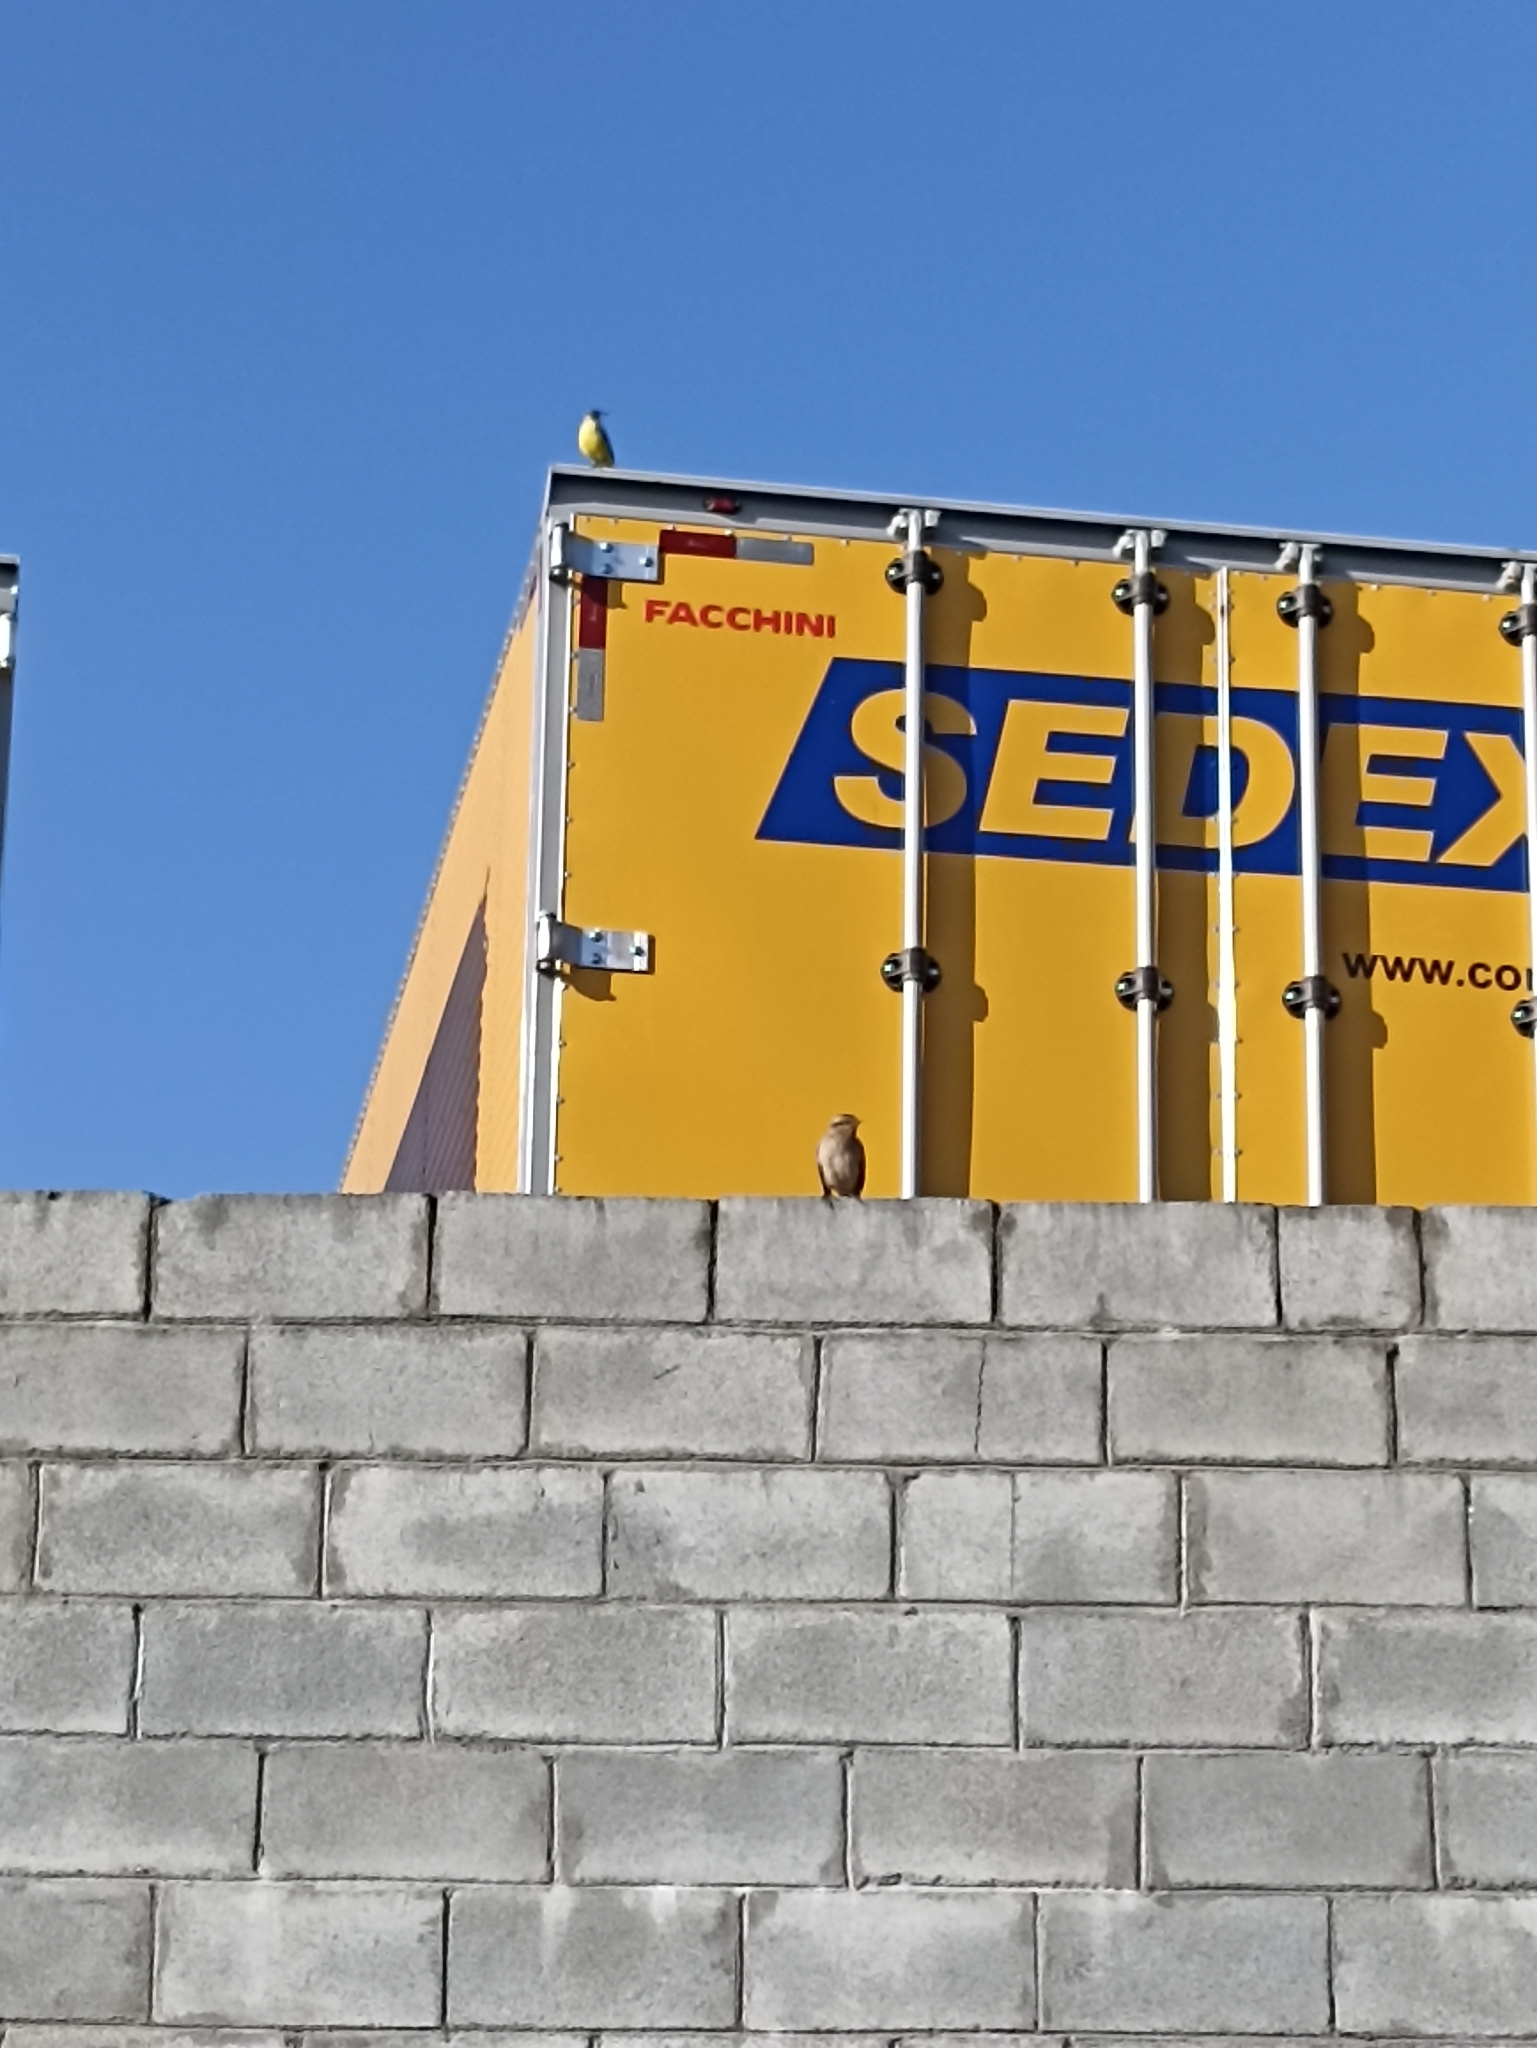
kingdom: Animalia
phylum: Chordata
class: Aves
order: Passeriformes
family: Mimidae
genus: Mimus
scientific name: Mimus saturninus
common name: Chalk-browed mockingbird
